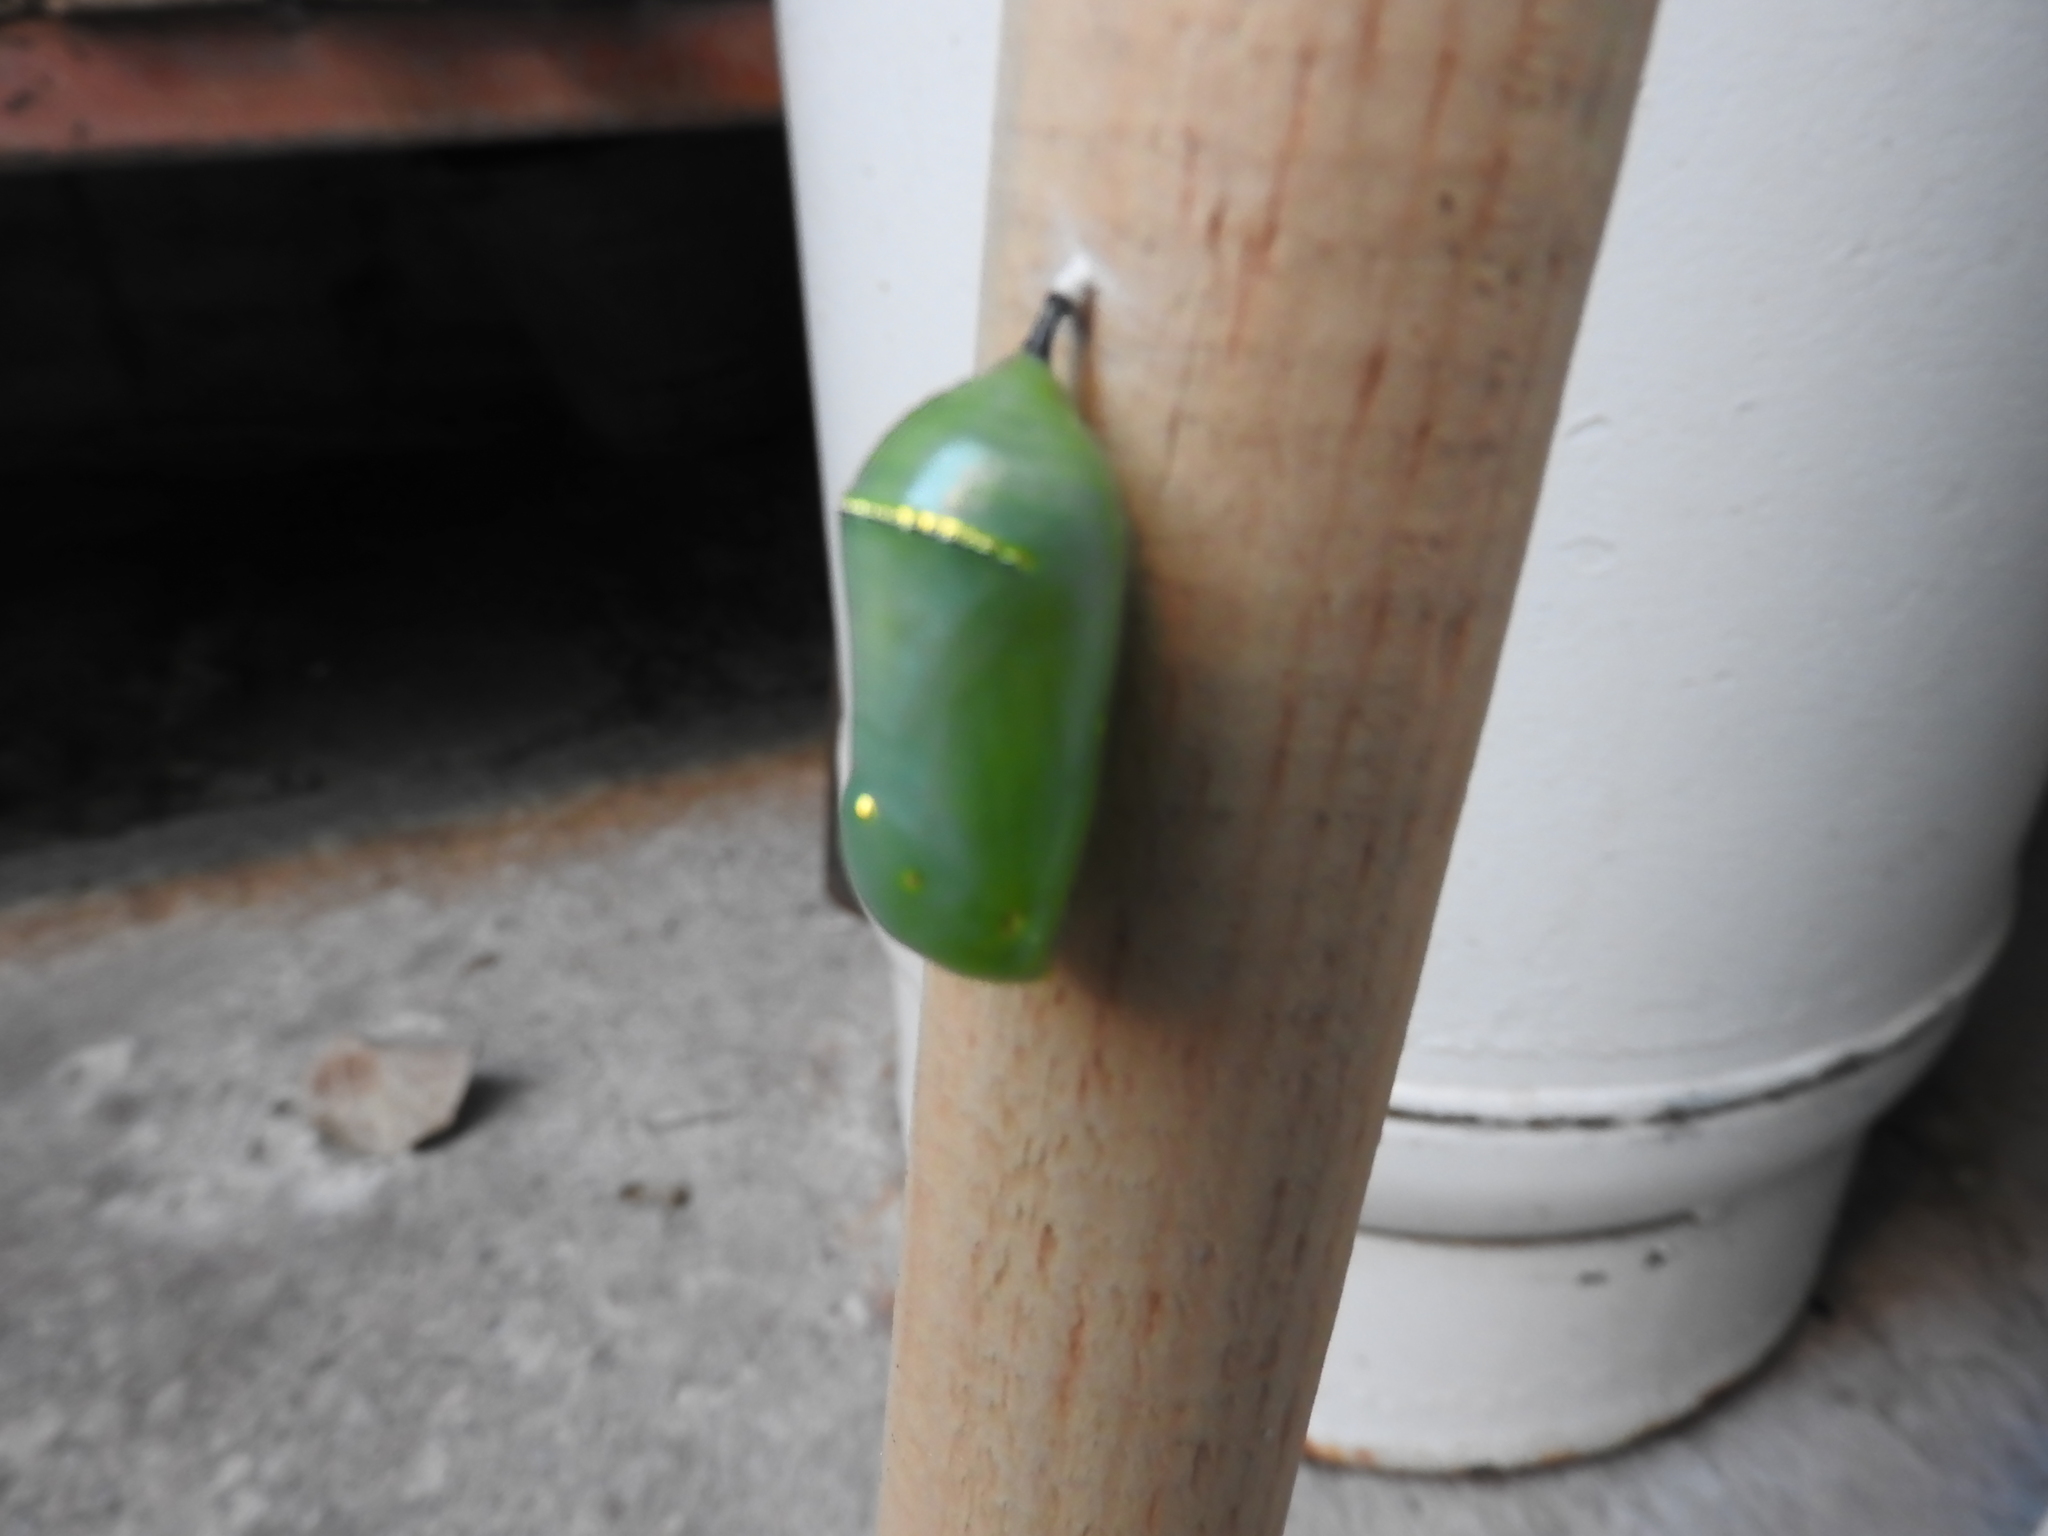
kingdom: Animalia
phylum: Arthropoda
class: Insecta
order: Lepidoptera
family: Nymphalidae
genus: Danaus
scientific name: Danaus plexippus
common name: Monarch
